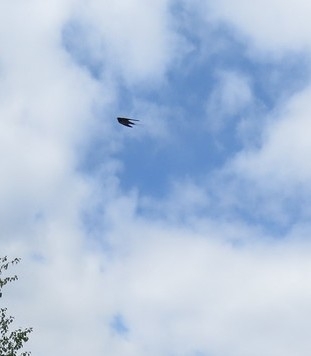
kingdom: Animalia
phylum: Chordata
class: Aves
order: Passeriformes
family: Hirundinidae
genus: Hirundo
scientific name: Hirundo rustica
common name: Barn swallow
